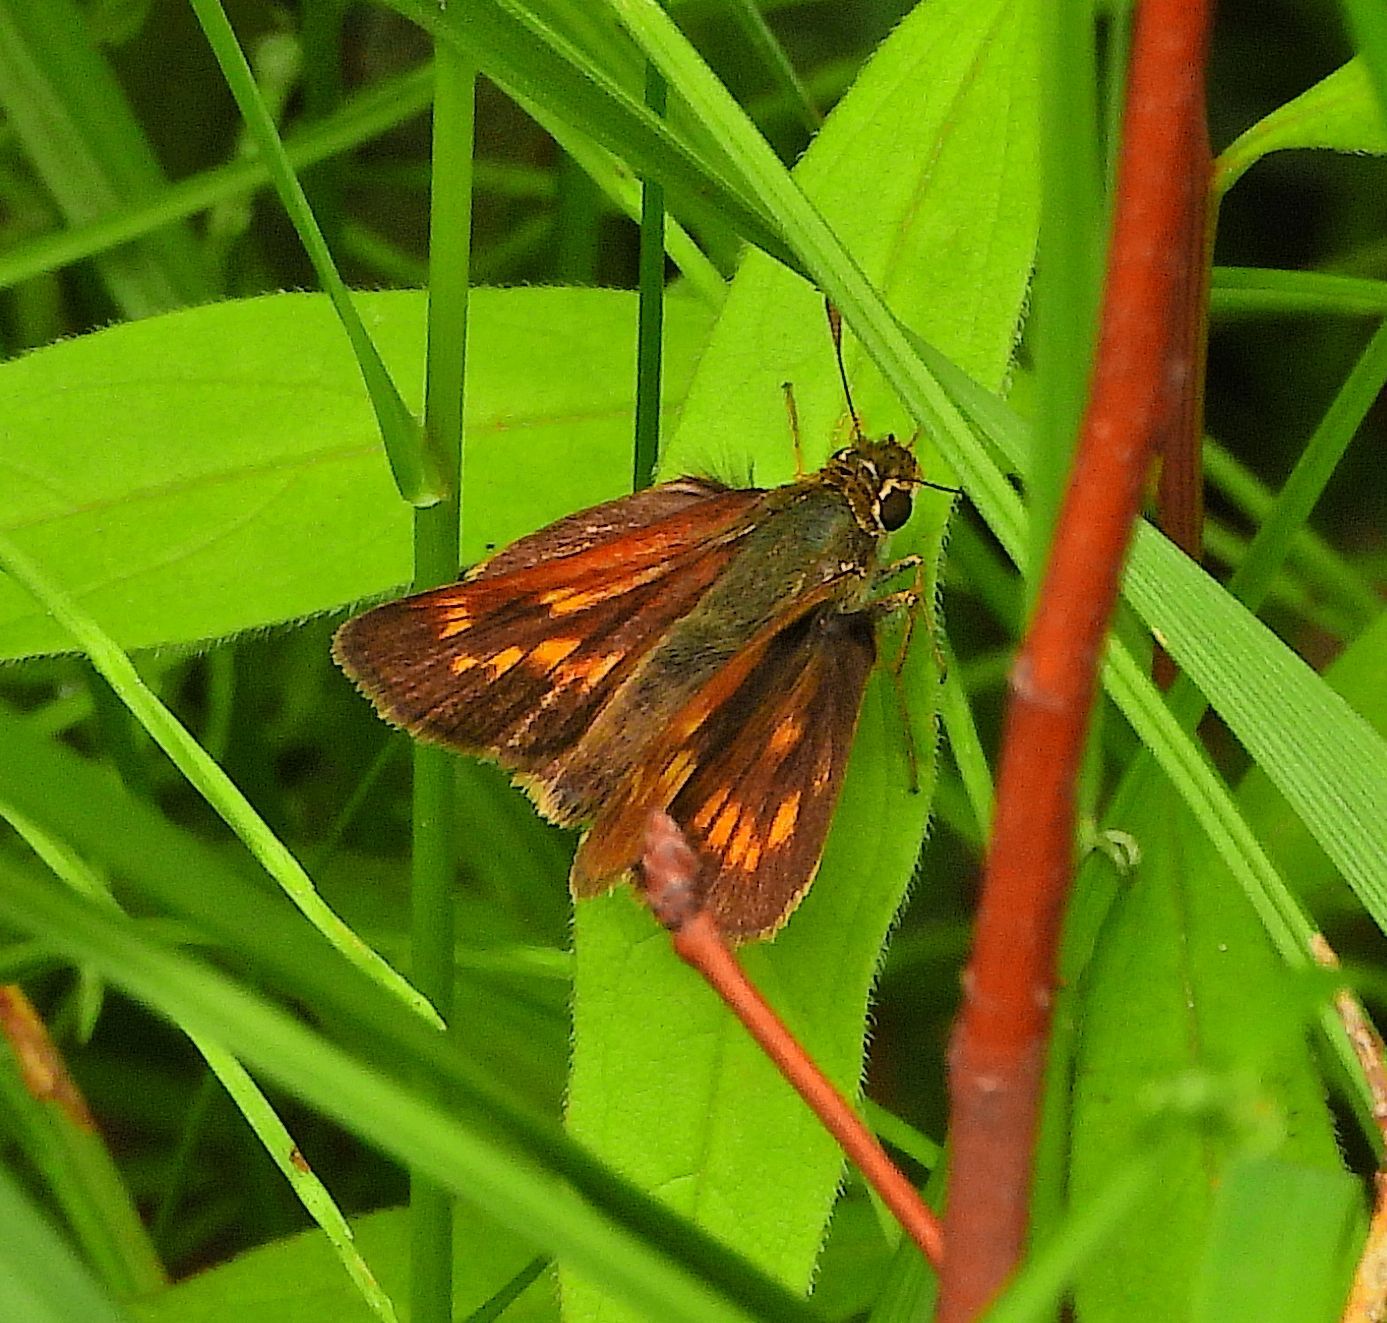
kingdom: Animalia
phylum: Arthropoda
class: Insecta
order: Lepidoptera
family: Hesperiidae
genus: Polites
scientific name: Polites mystic
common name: Long dash
